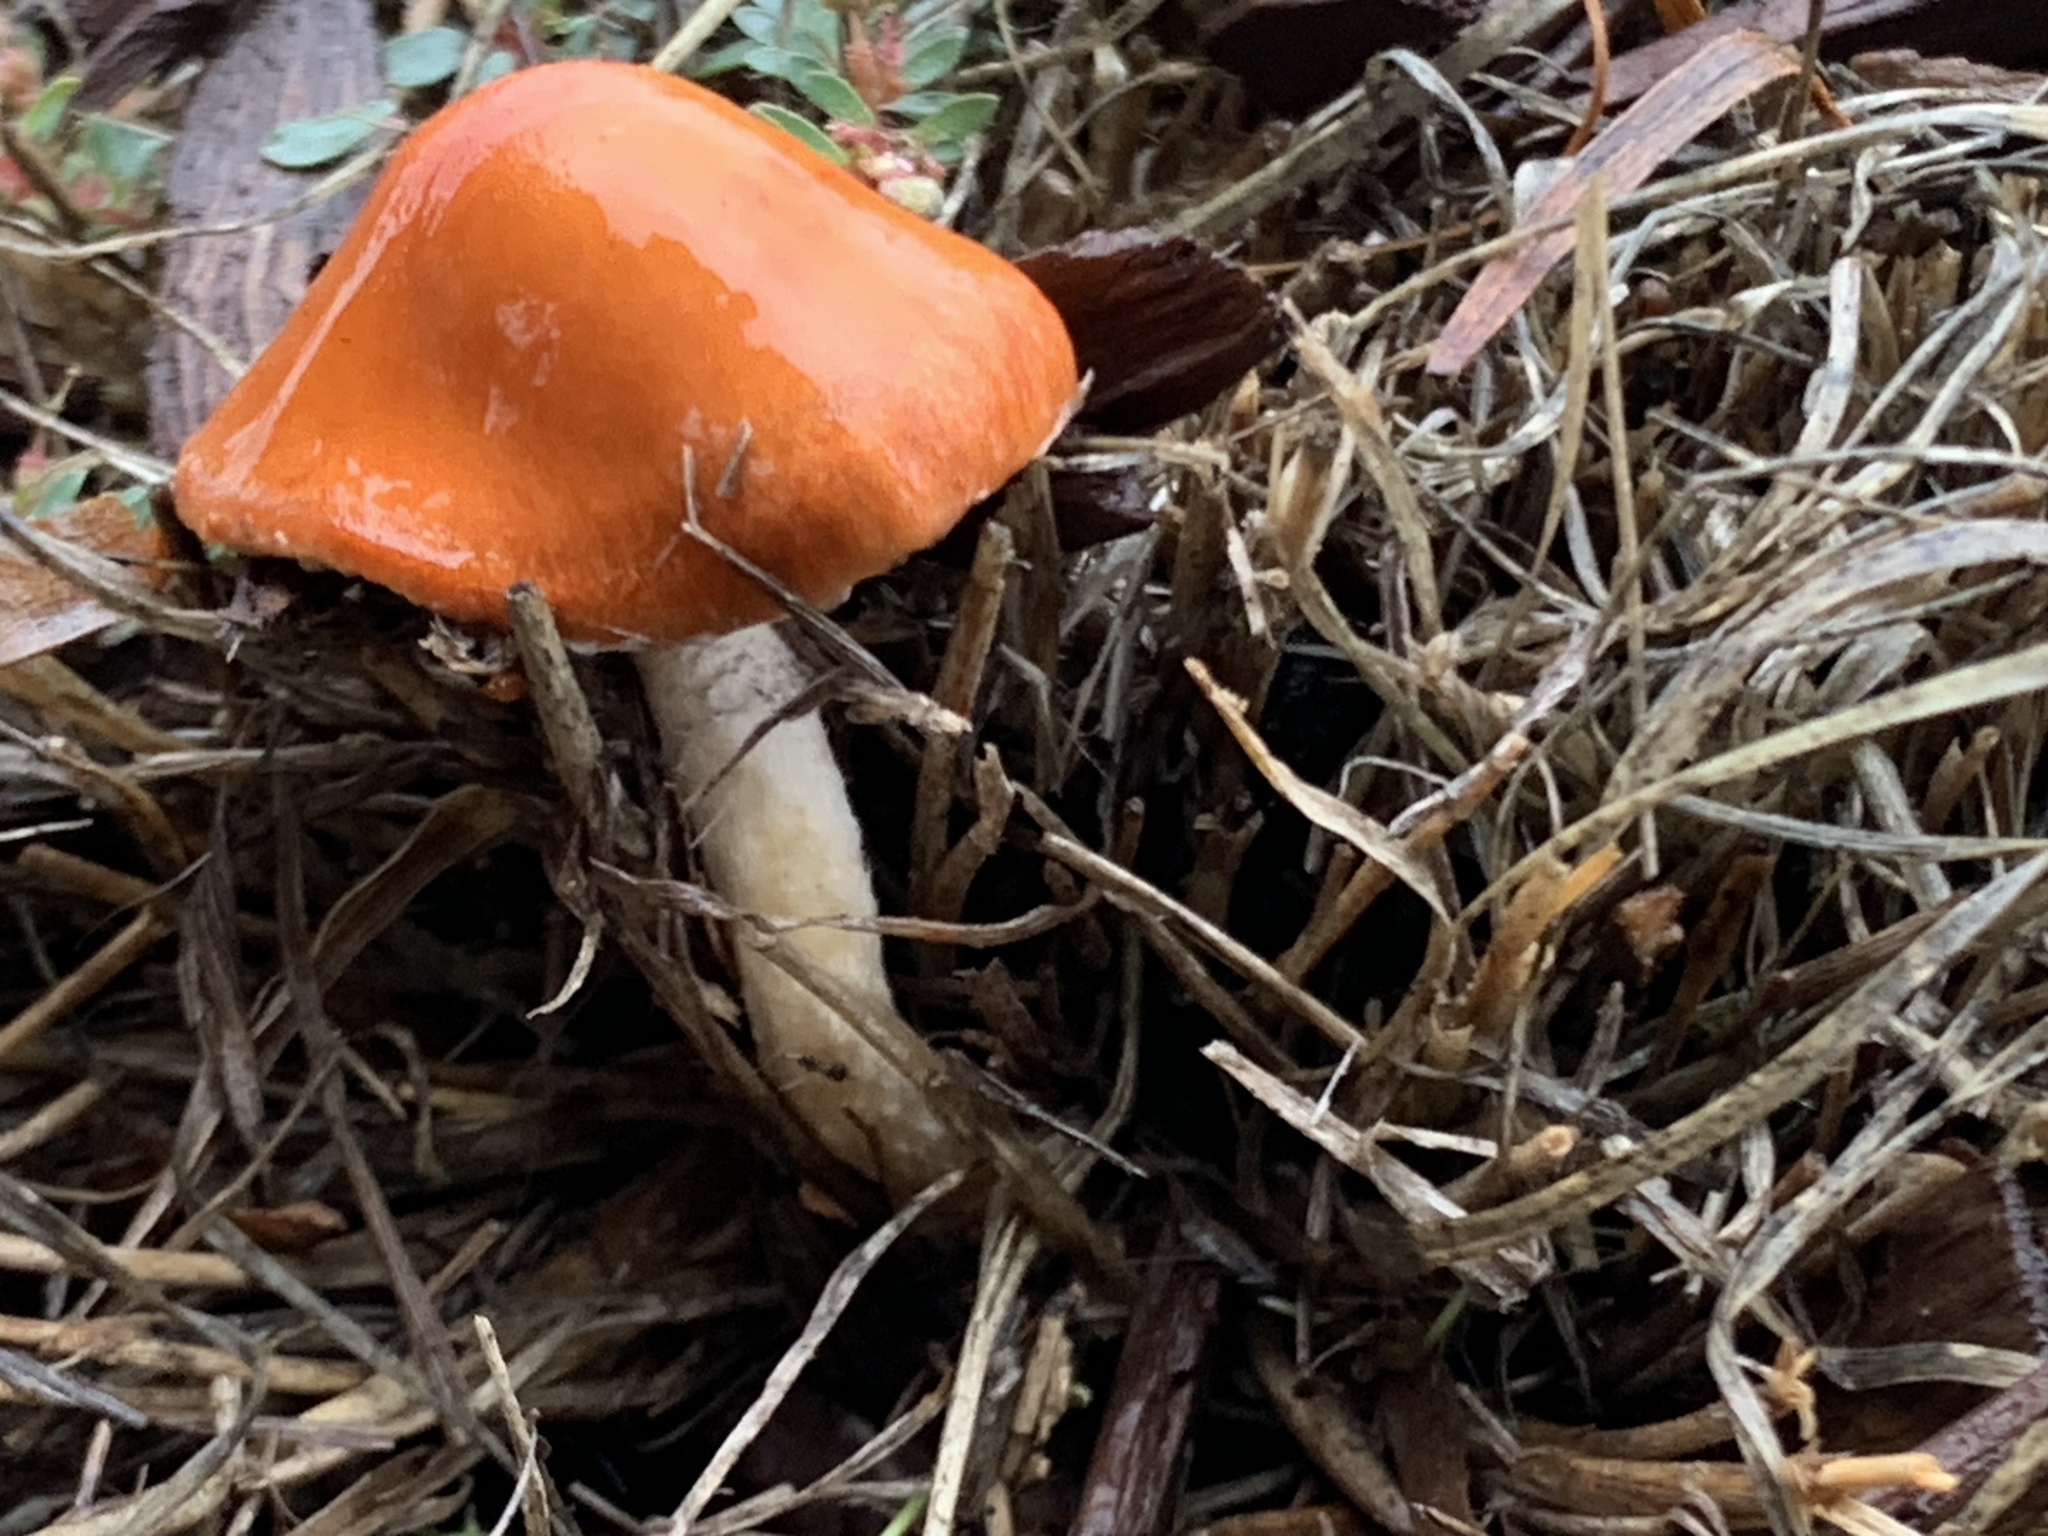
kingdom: Fungi
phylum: Basidiomycota
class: Agaricomycetes
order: Agaricales
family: Strophariaceae
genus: Leratiomyces
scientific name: Leratiomyces ceres
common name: Redlead roundhead
